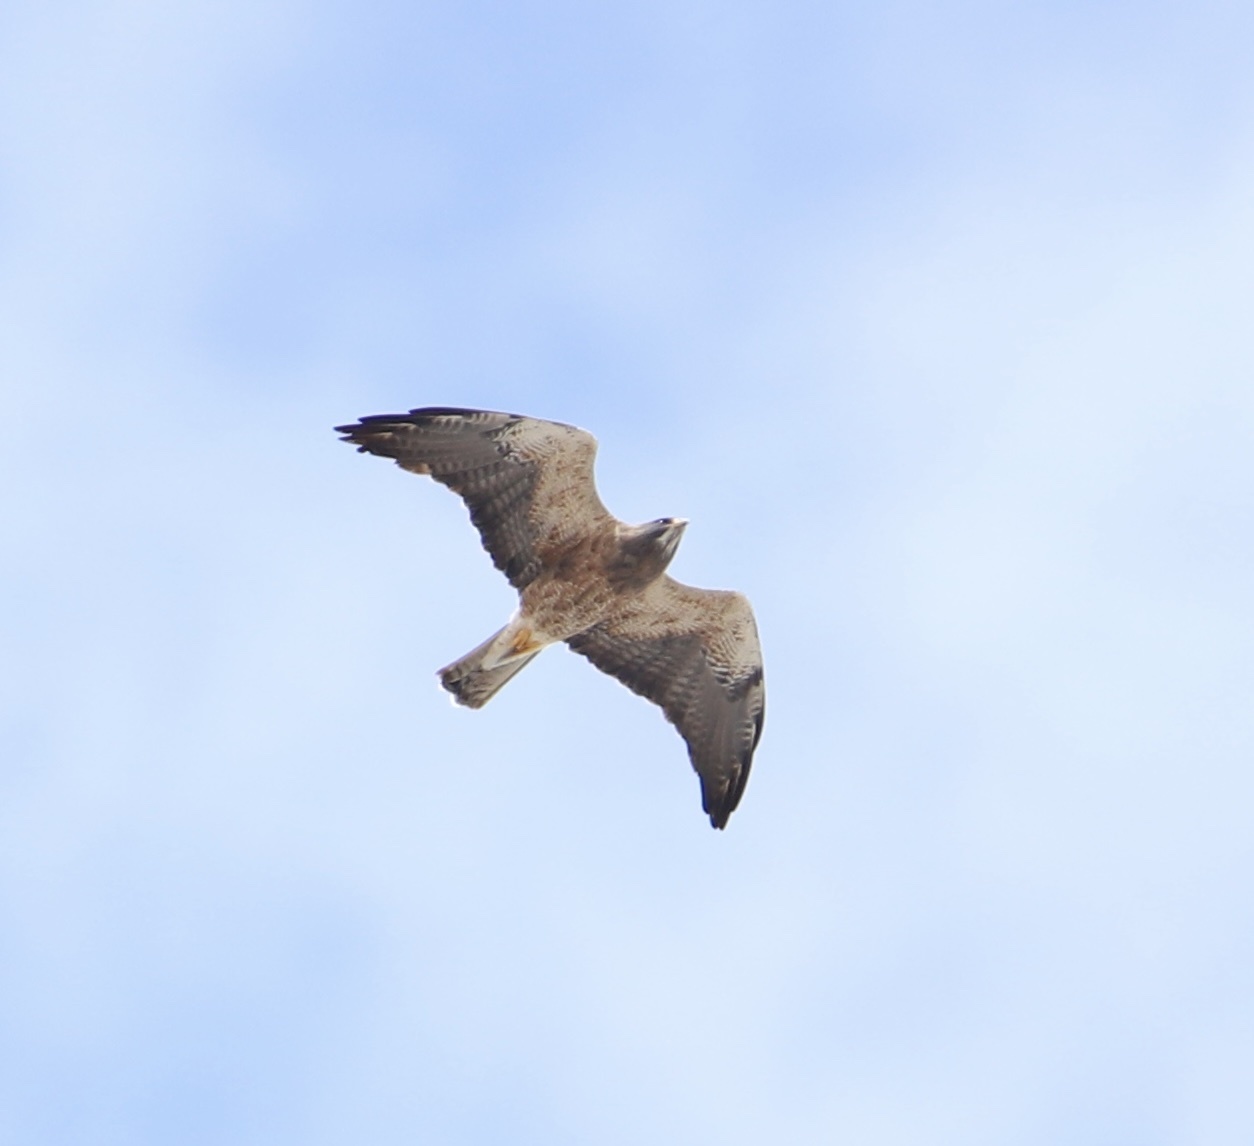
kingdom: Animalia
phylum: Chordata
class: Aves
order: Accipitriformes
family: Accipitridae
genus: Buteo
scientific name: Buteo swainsoni
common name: Swainson's hawk
